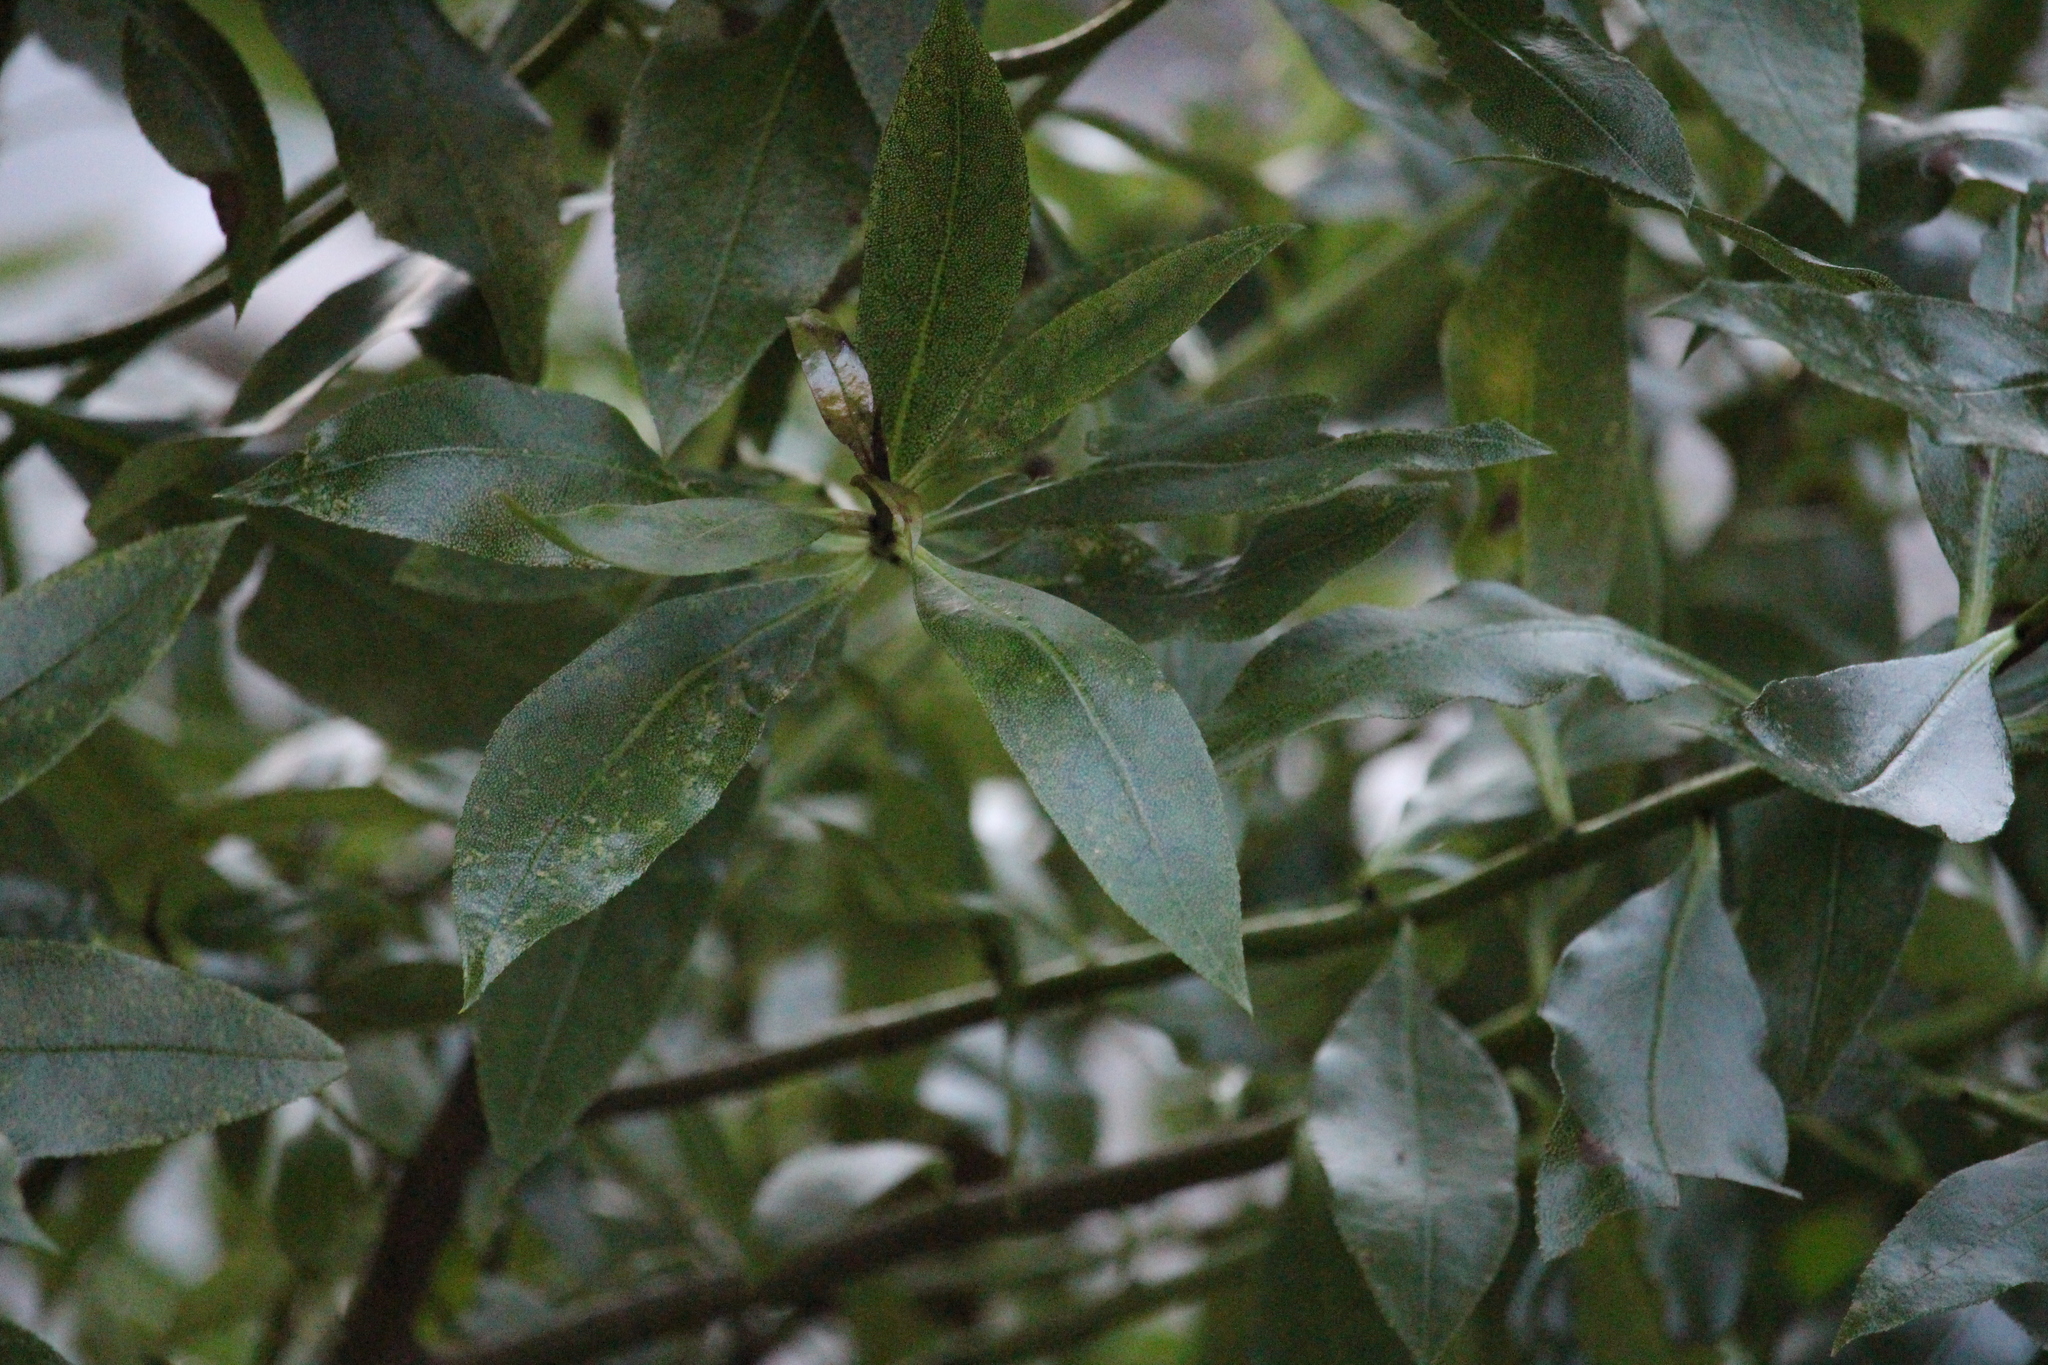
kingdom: Plantae
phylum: Tracheophyta
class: Magnoliopsida
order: Lamiales
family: Scrophulariaceae
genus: Myoporum
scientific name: Myoporum laetum
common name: Ngaio tree
